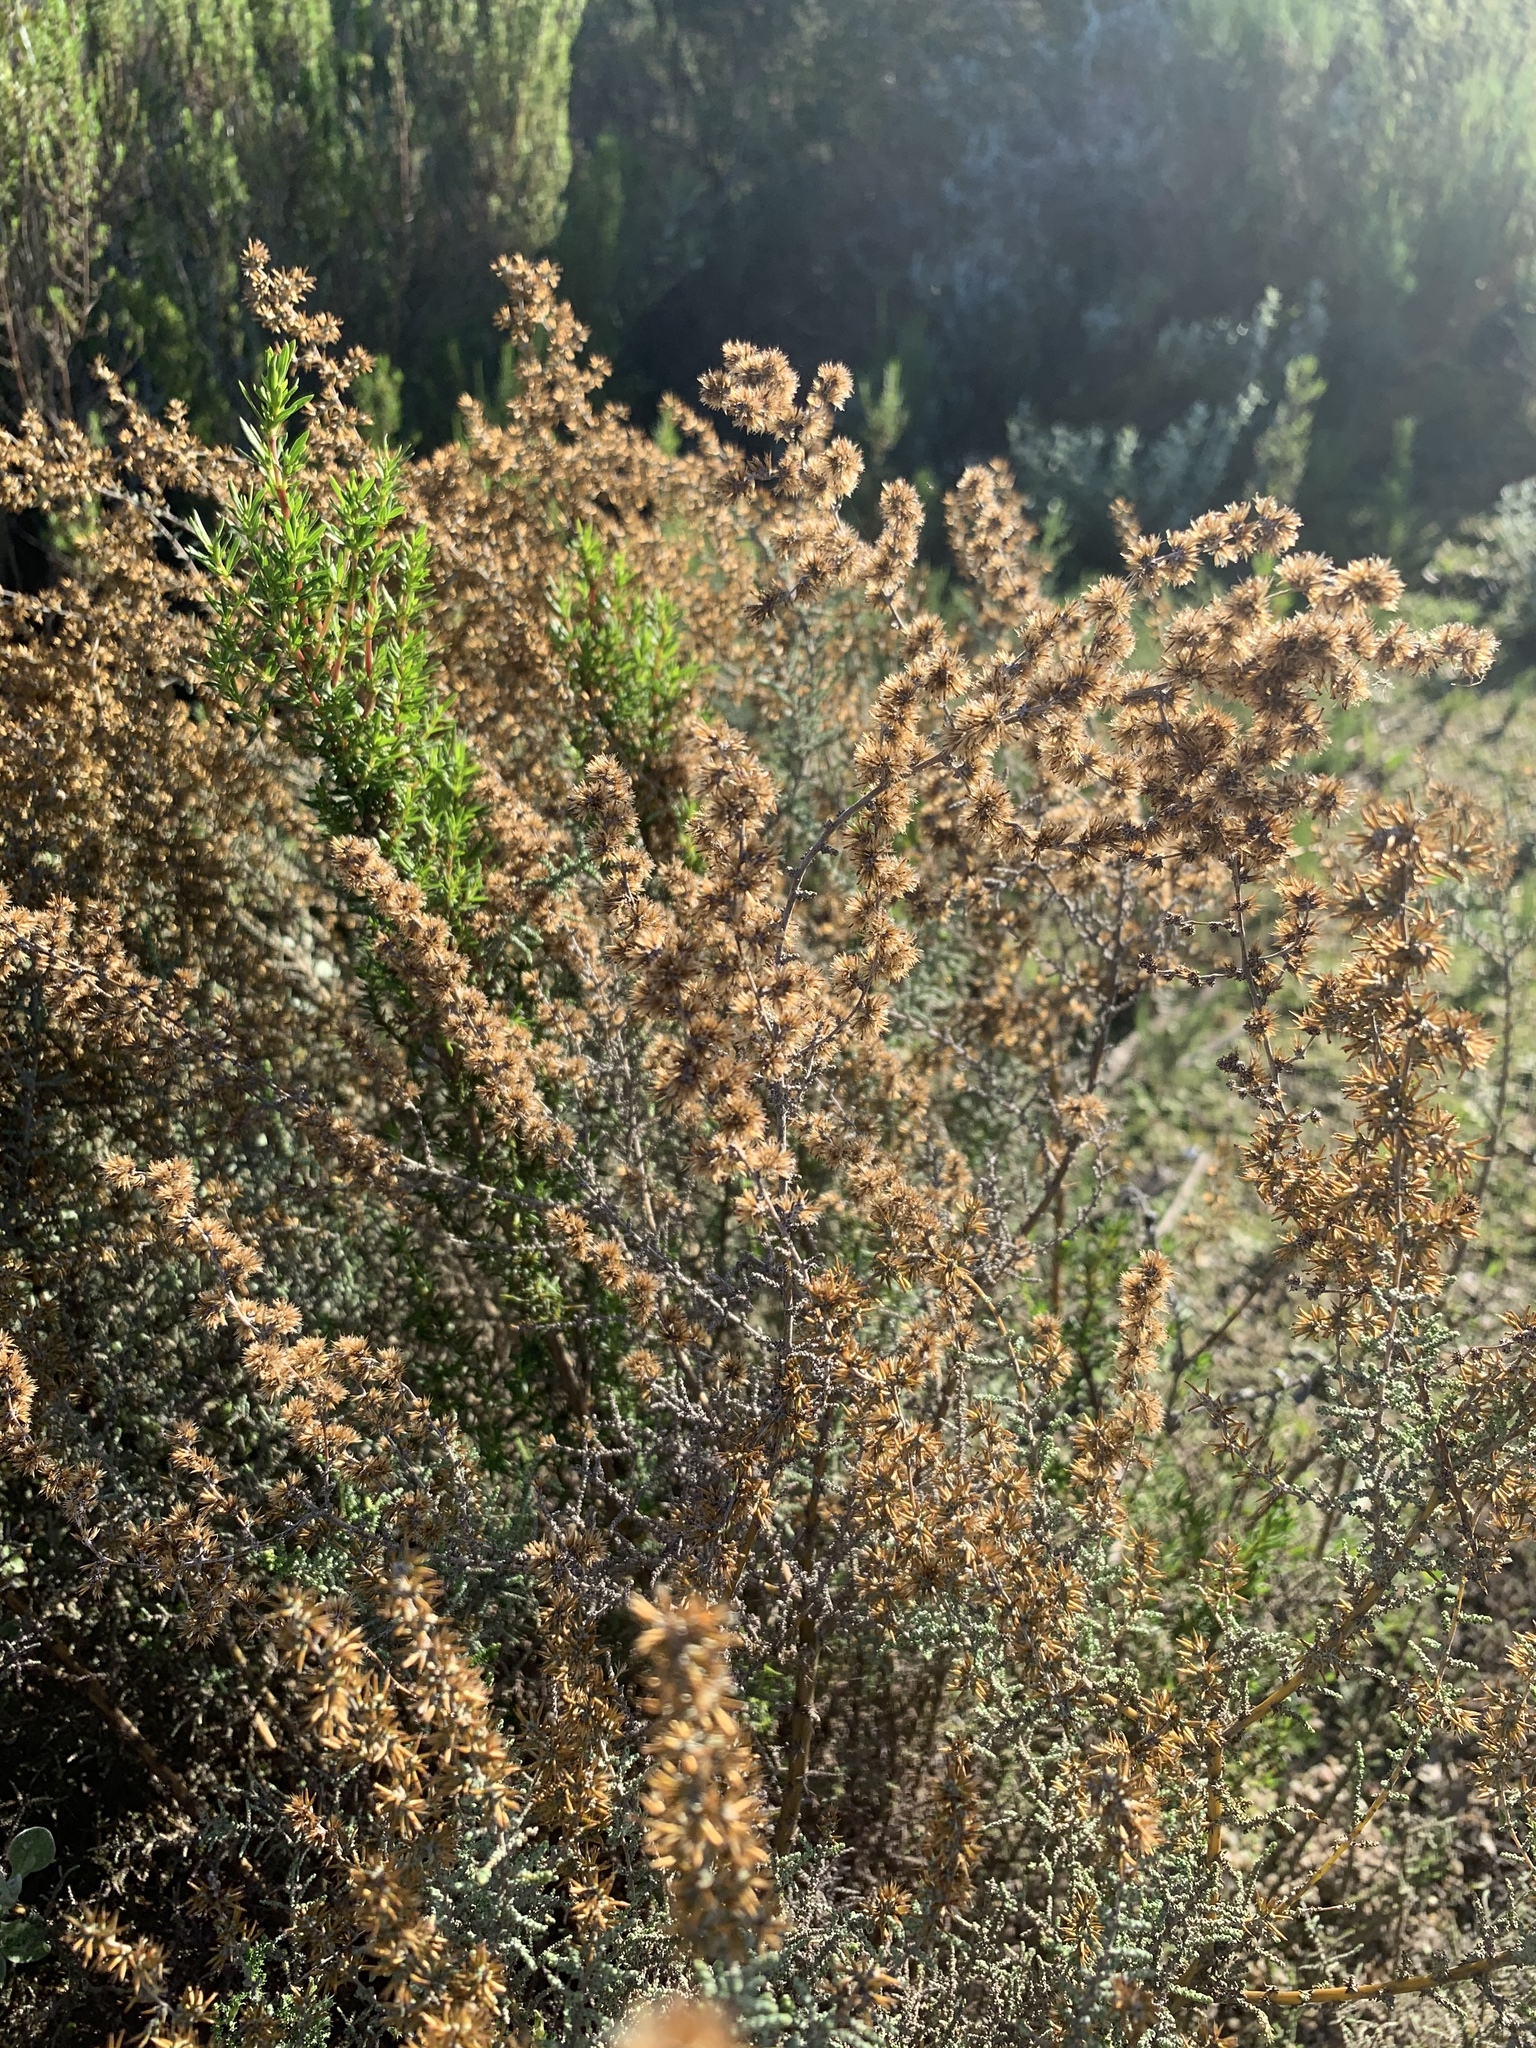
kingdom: Plantae
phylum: Tracheophyta
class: Magnoliopsida
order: Asterales
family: Asteraceae
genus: Seriphium
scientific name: Seriphium plumosum
